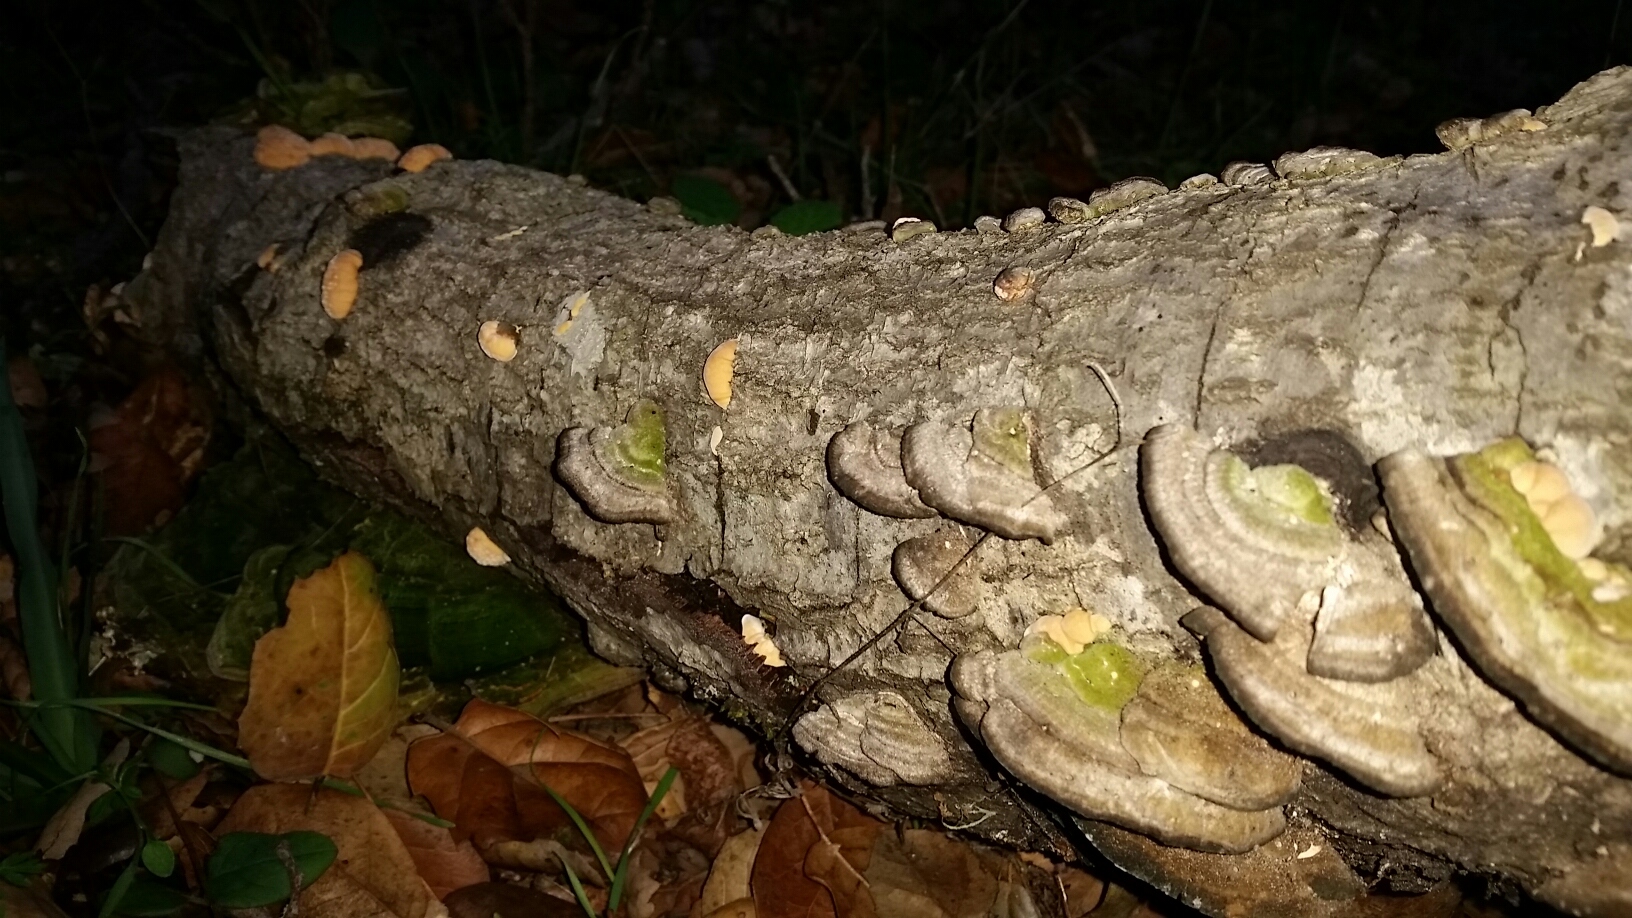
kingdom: Fungi
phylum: Basidiomycota
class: Agaricomycetes
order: Polyporales
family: Polyporaceae
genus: Lenzites
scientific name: Lenzites betulinus
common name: Birch mazegill
